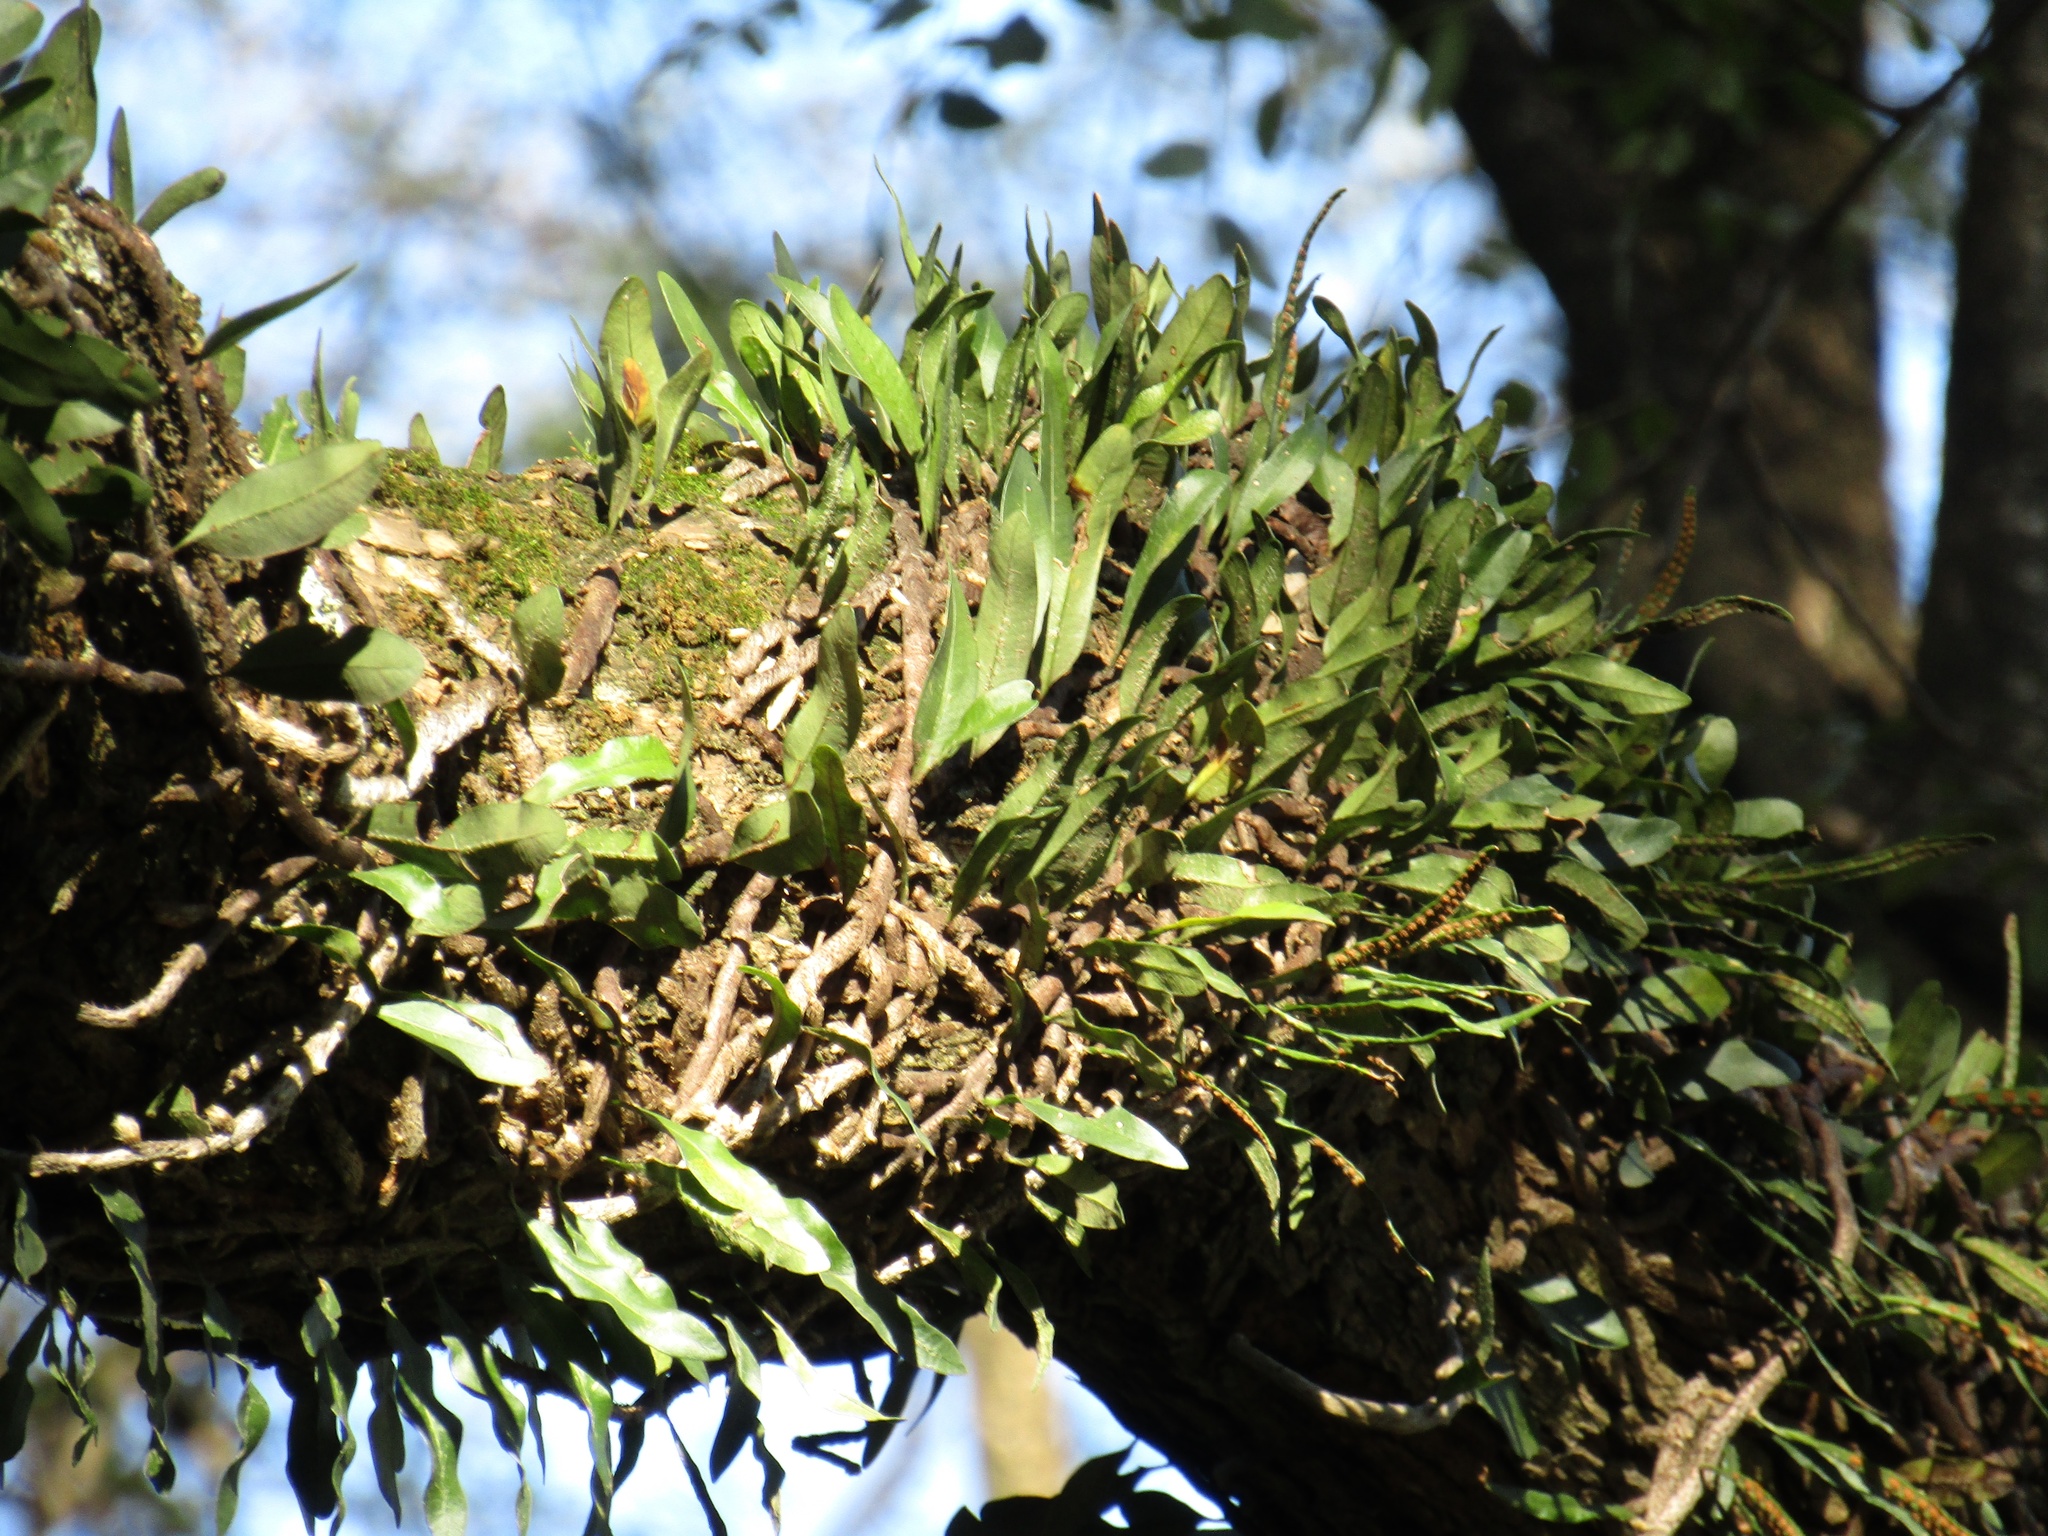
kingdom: Plantae
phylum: Tracheophyta
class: Polypodiopsida
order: Polypodiales
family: Polypodiaceae
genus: Microgramma
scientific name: Microgramma mortoniana
